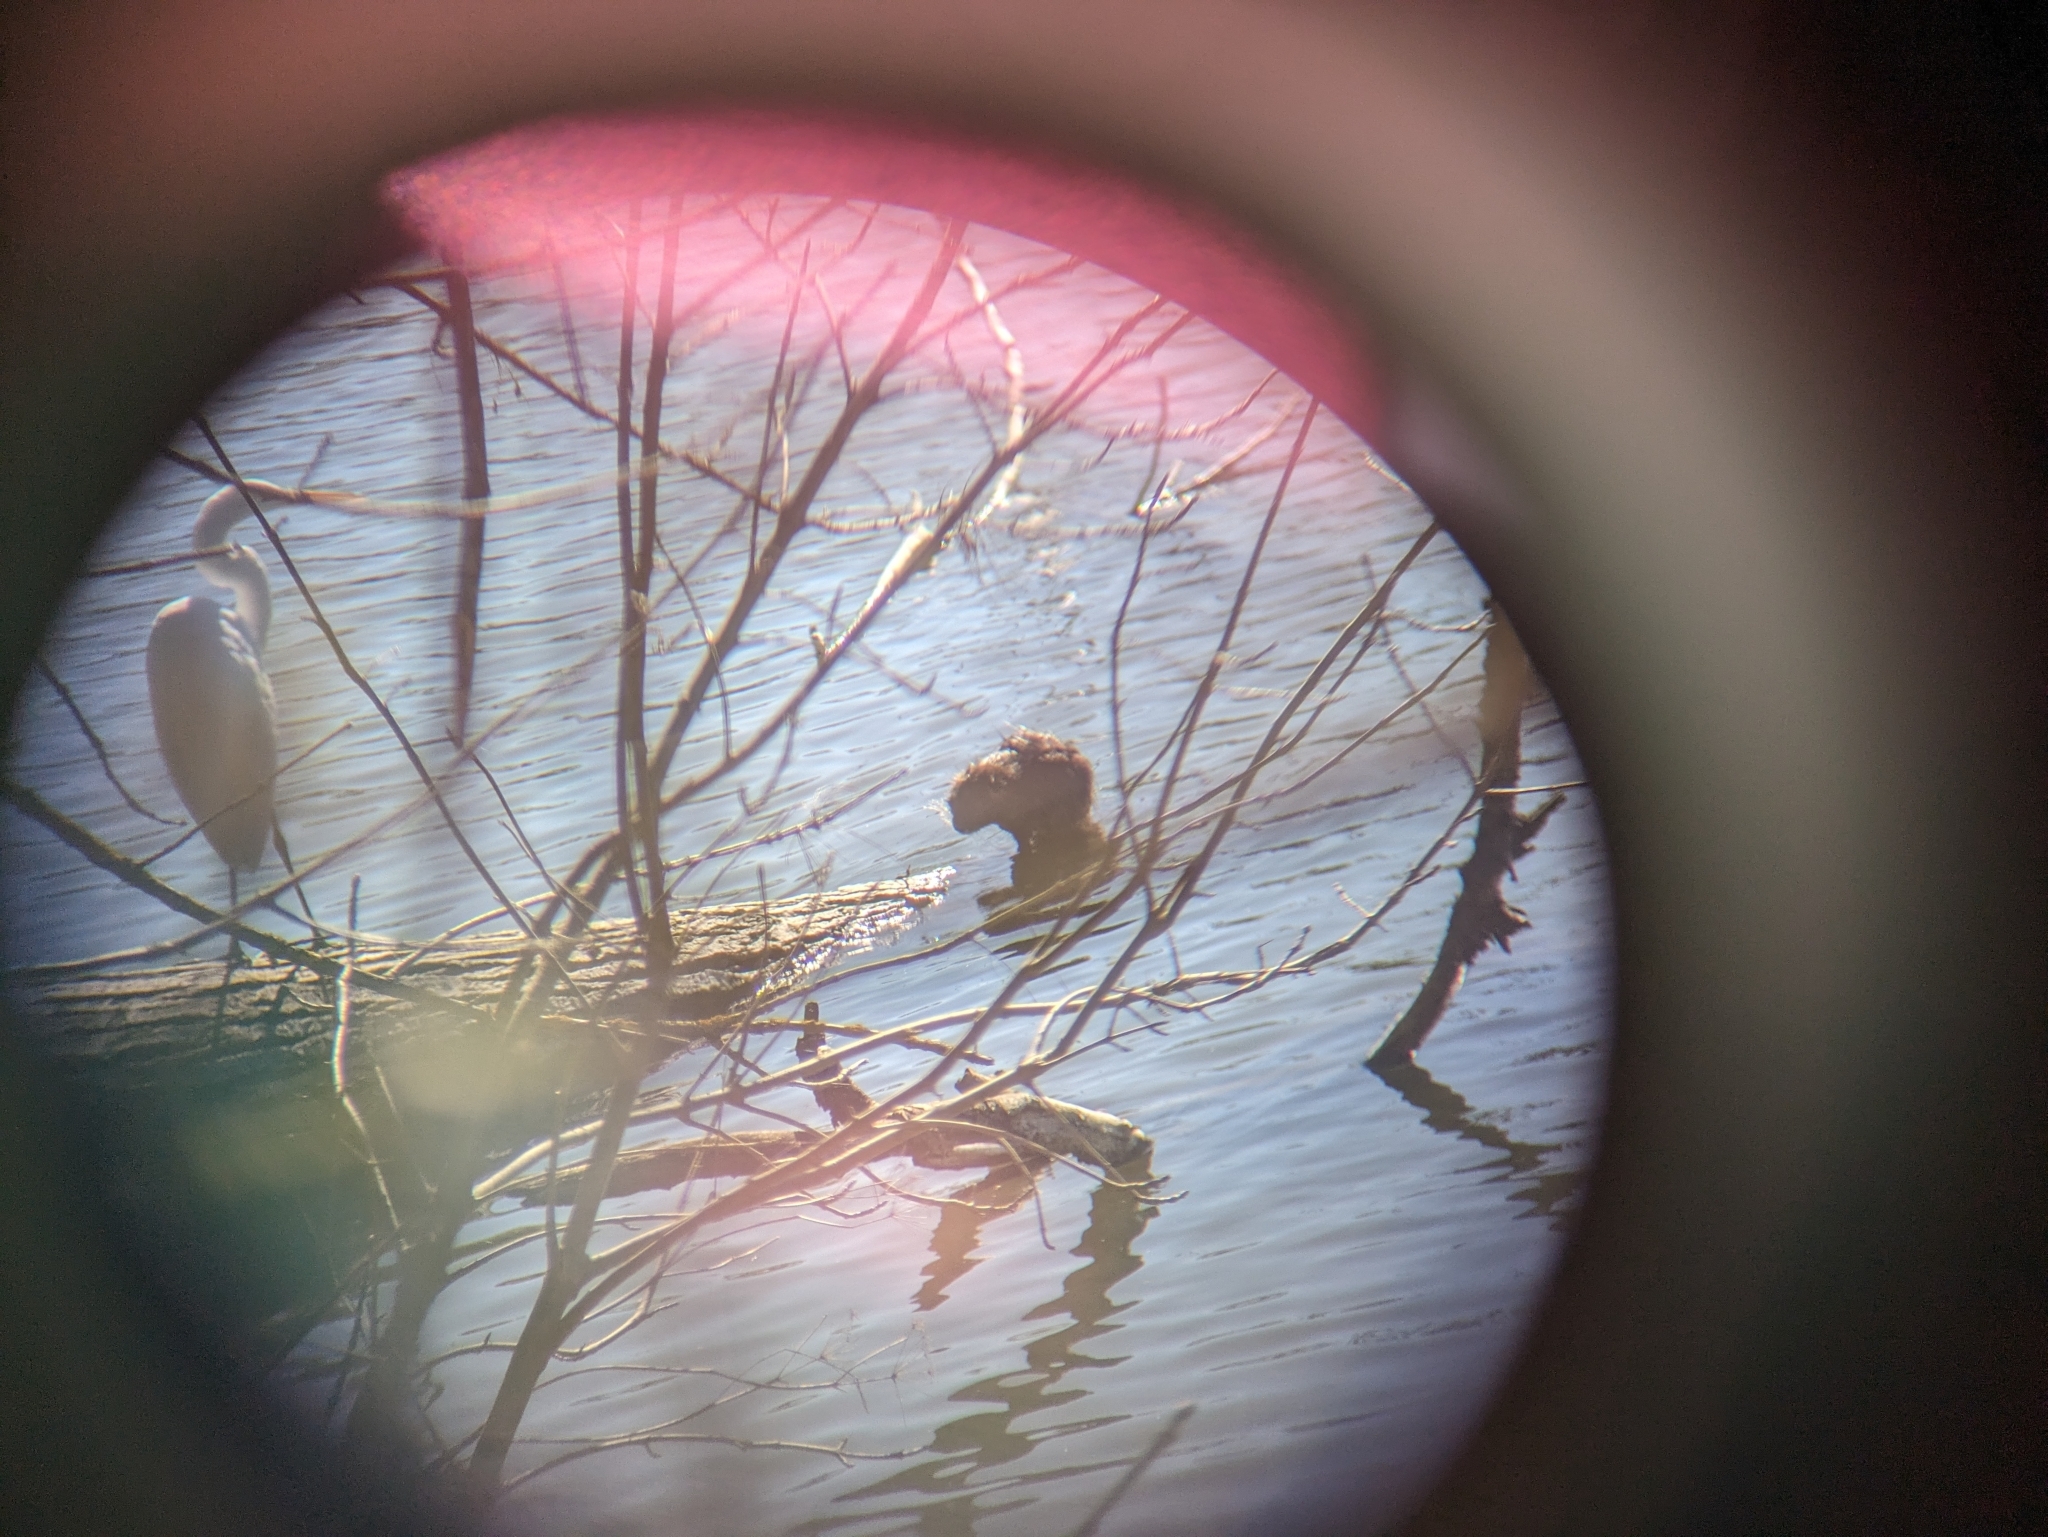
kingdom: Animalia
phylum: Chordata
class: Mammalia
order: Rodentia
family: Cricetidae
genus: Ondatra
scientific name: Ondatra zibethicus
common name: Muskrat
